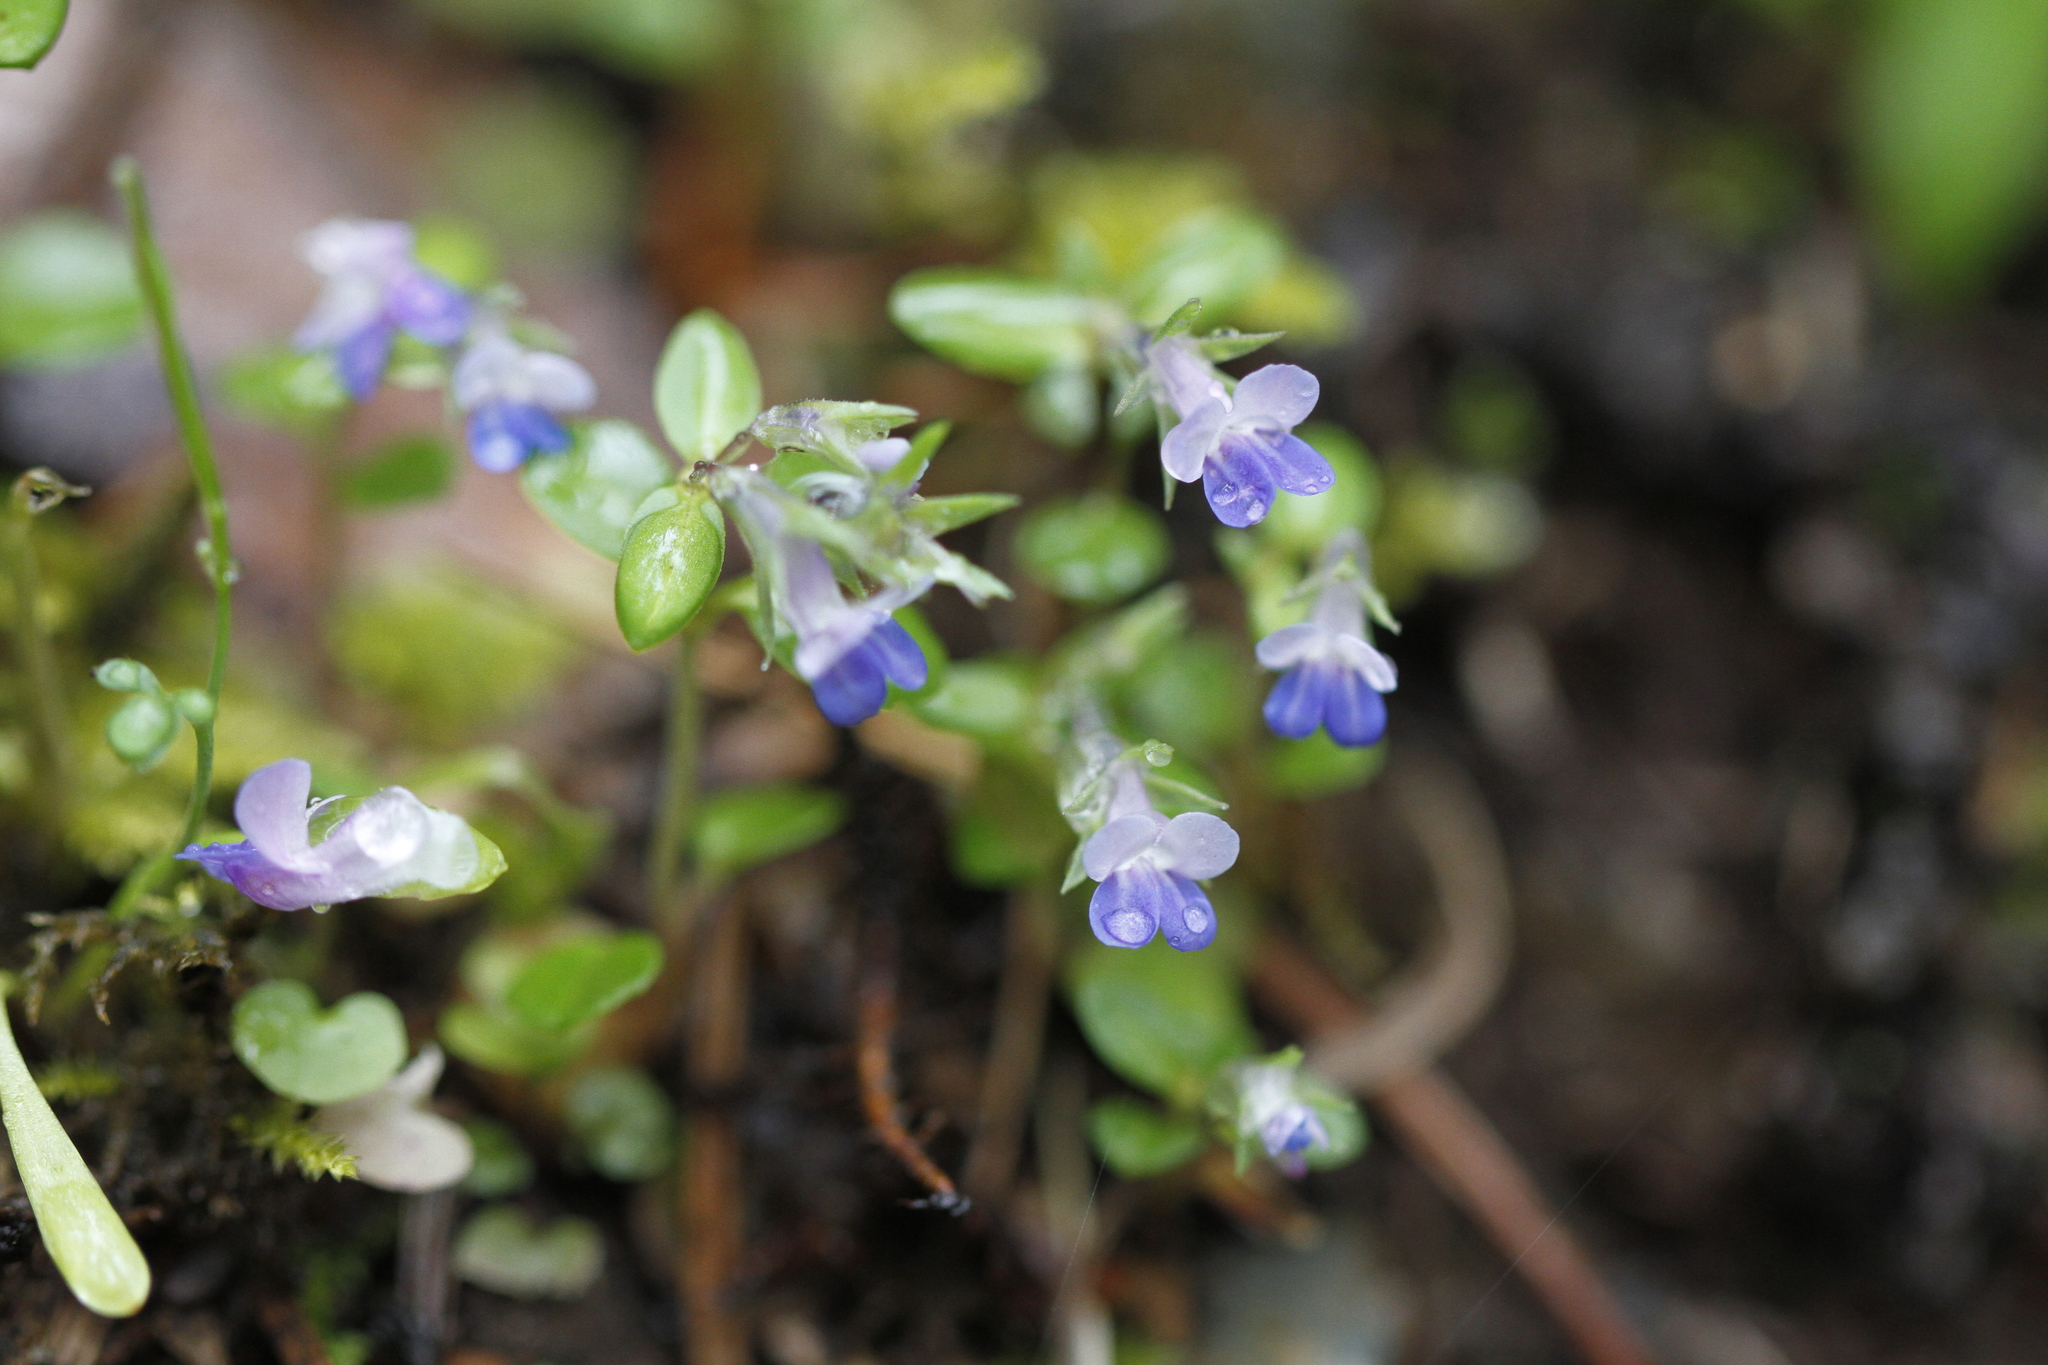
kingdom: Plantae
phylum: Tracheophyta
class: Magnoliopsida
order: Lamiales
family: Plantaginaceae
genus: Collinsia
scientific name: Collinsia parviflora
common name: Blue-lips
